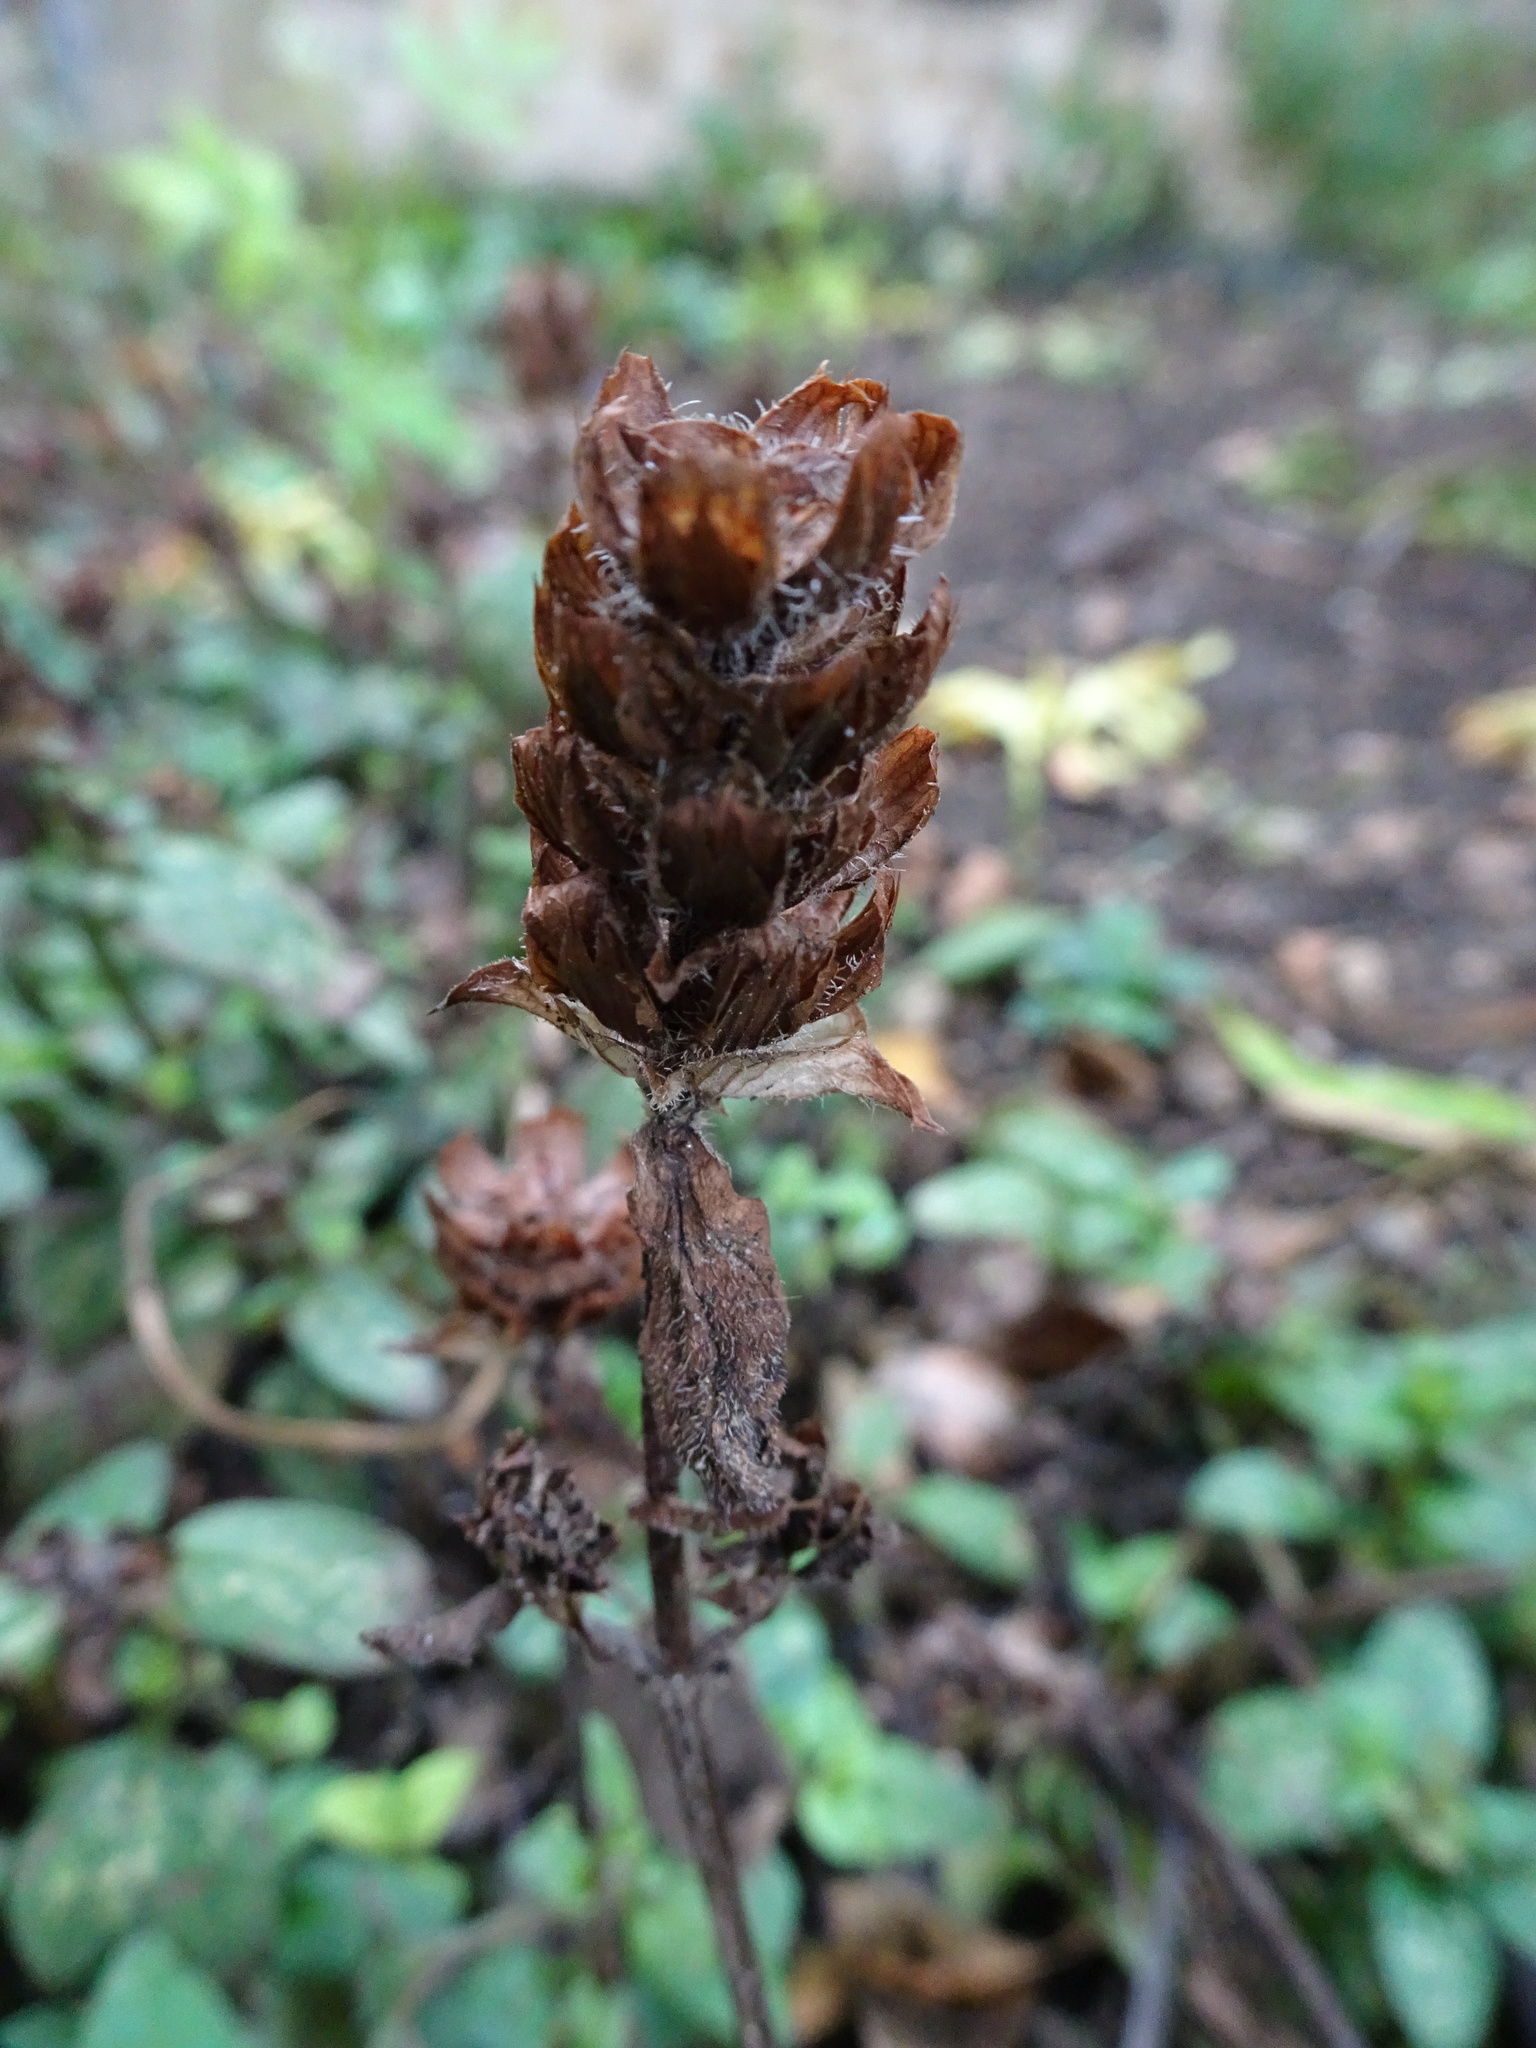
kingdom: Plantae
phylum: Tracheophyta
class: Magnoliopsida
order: Lamiales
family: Lamiaceae
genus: Prunella
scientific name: Prunella vulgaris
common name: Heal-all
